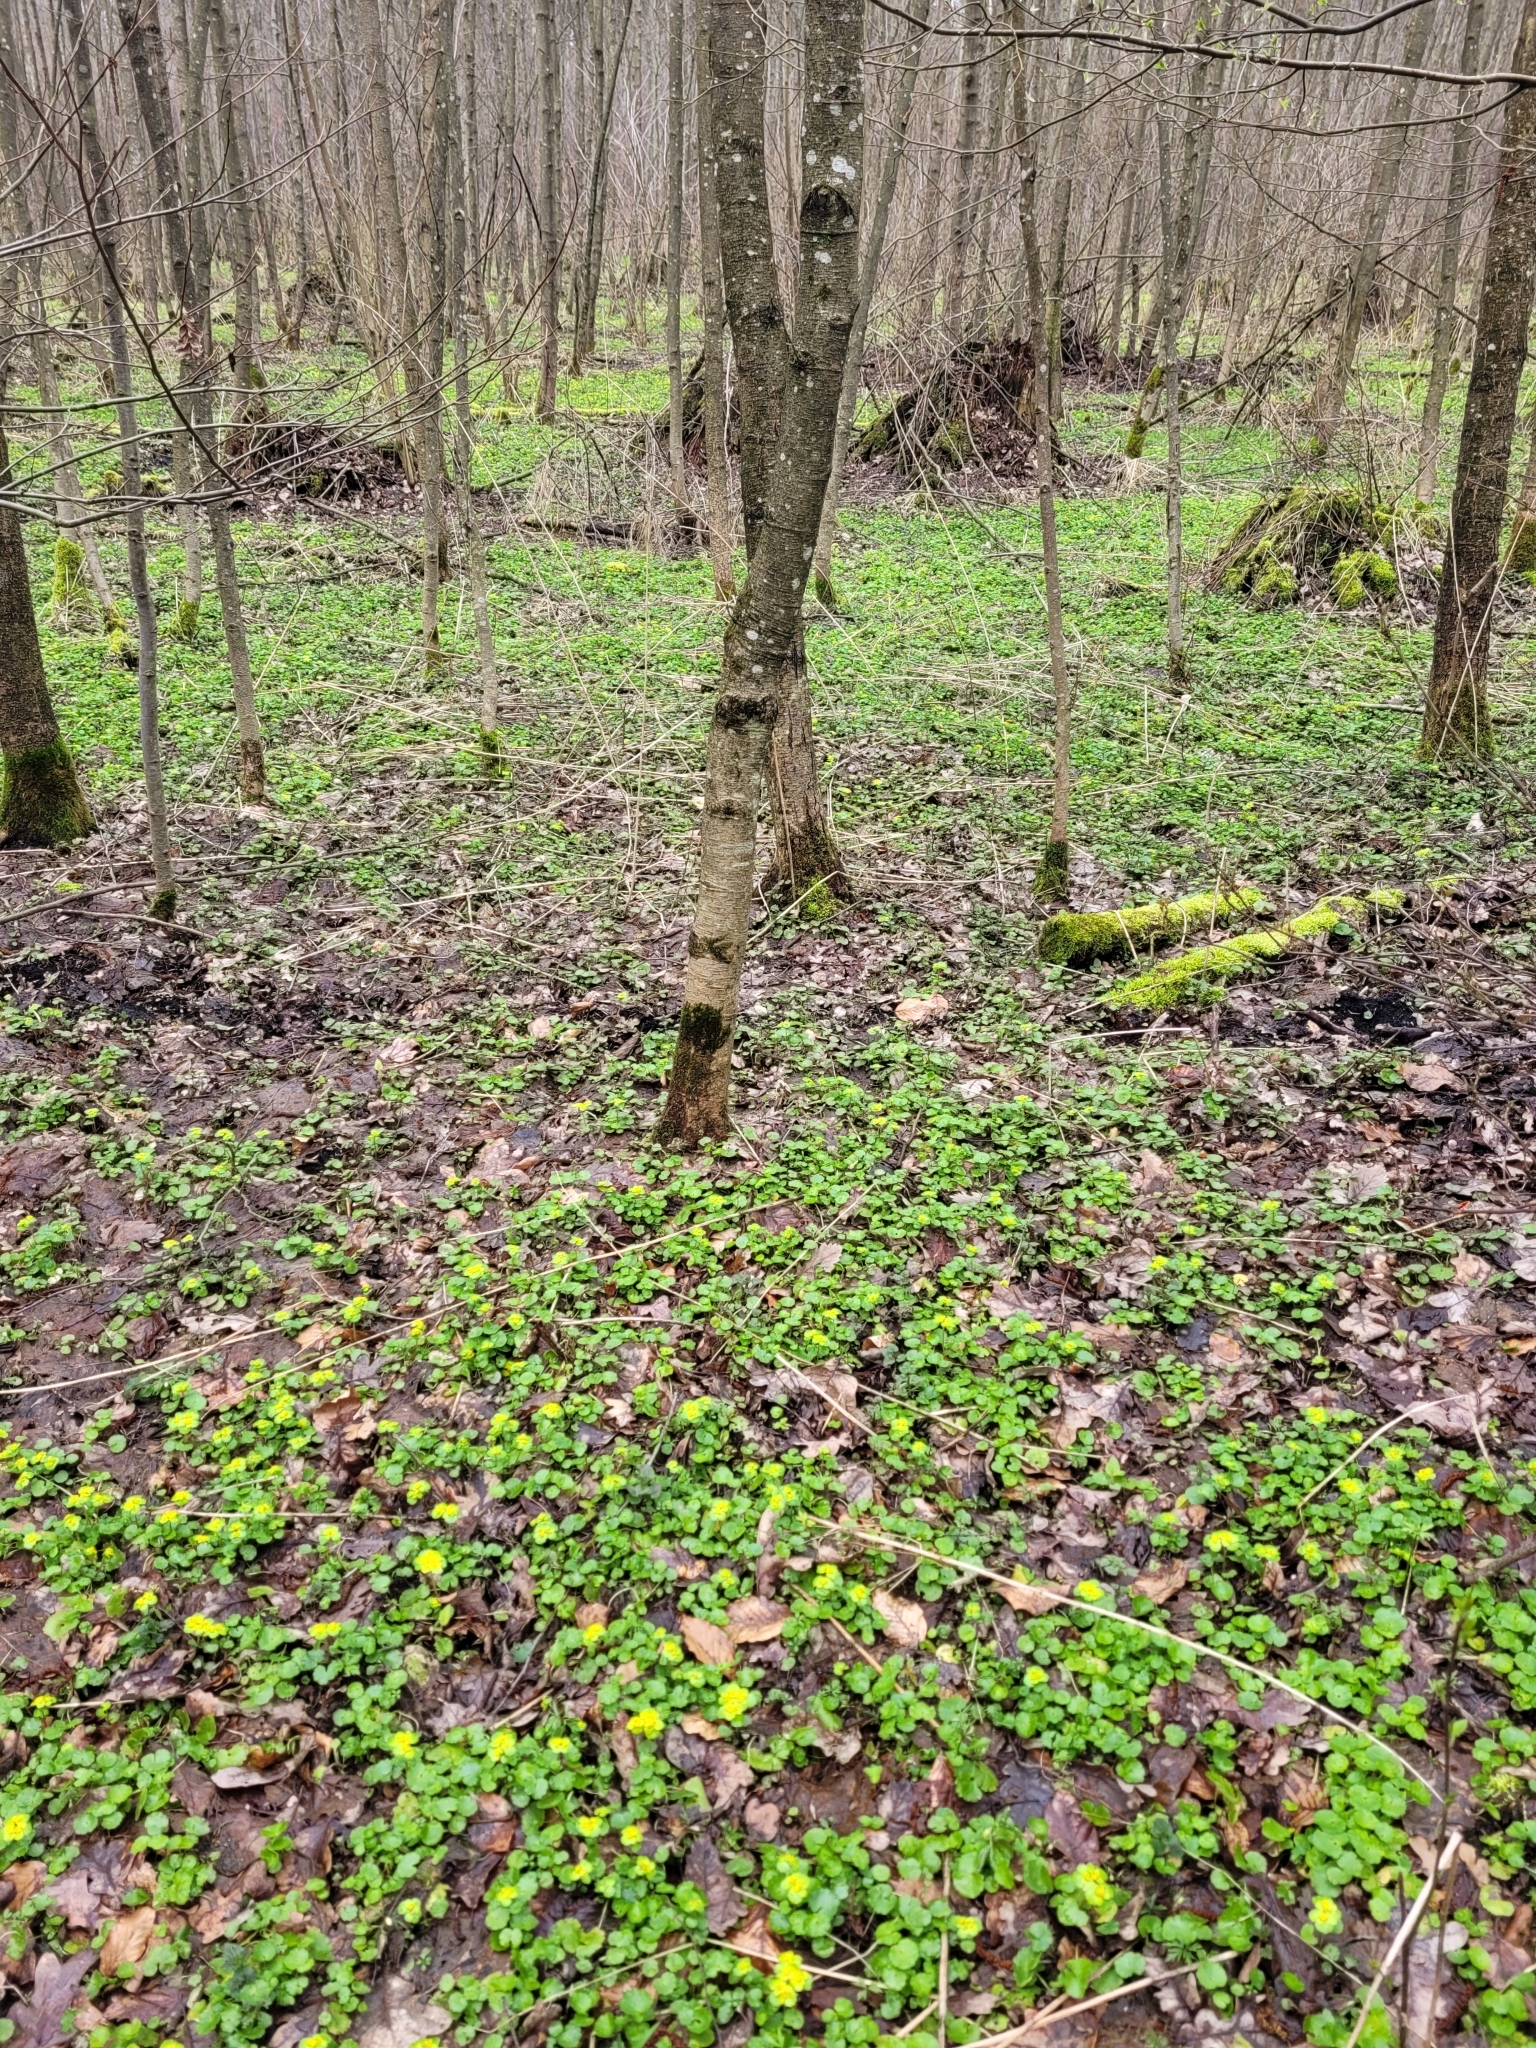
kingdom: Plantae
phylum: Tracheophyta
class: Magnoliopsida
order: Saxifragales
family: Saxifragaceae
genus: Chrysosplenium
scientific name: Chrysosplenium alternifolium
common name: Alternate-leaved golden-saxifrage
